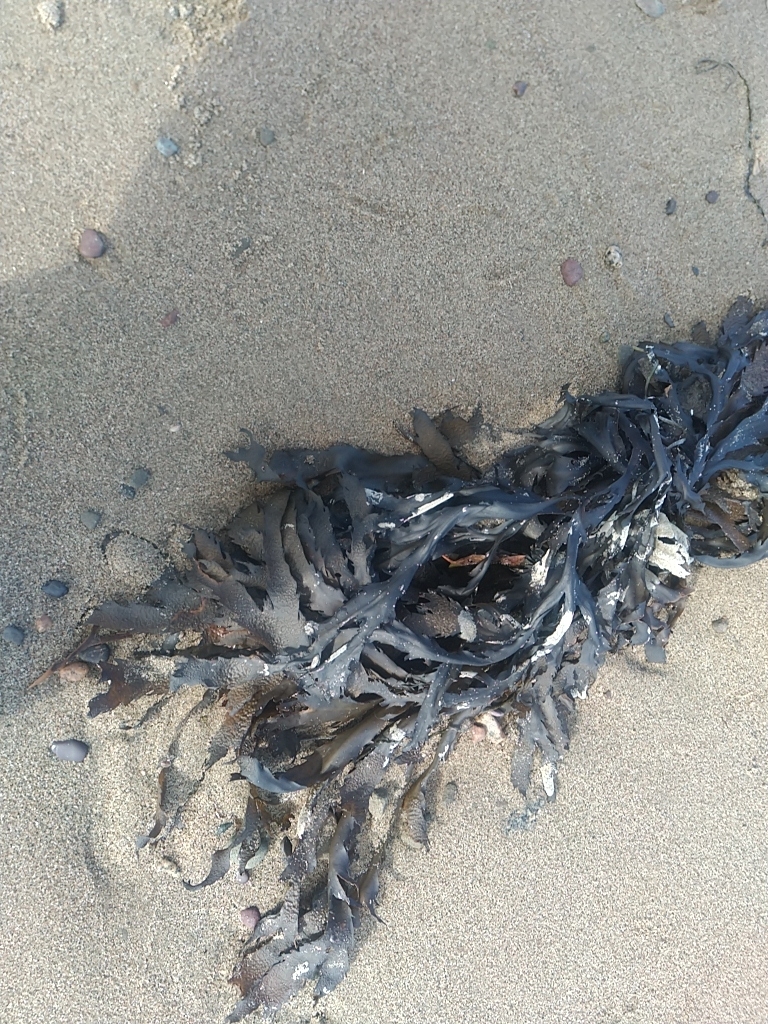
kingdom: Chromista
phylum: Ochrophyta
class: Phaeophyceae
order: Fucales
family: Fucaceae
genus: Fucus
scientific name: Fucus serratus
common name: Toothed wrack
